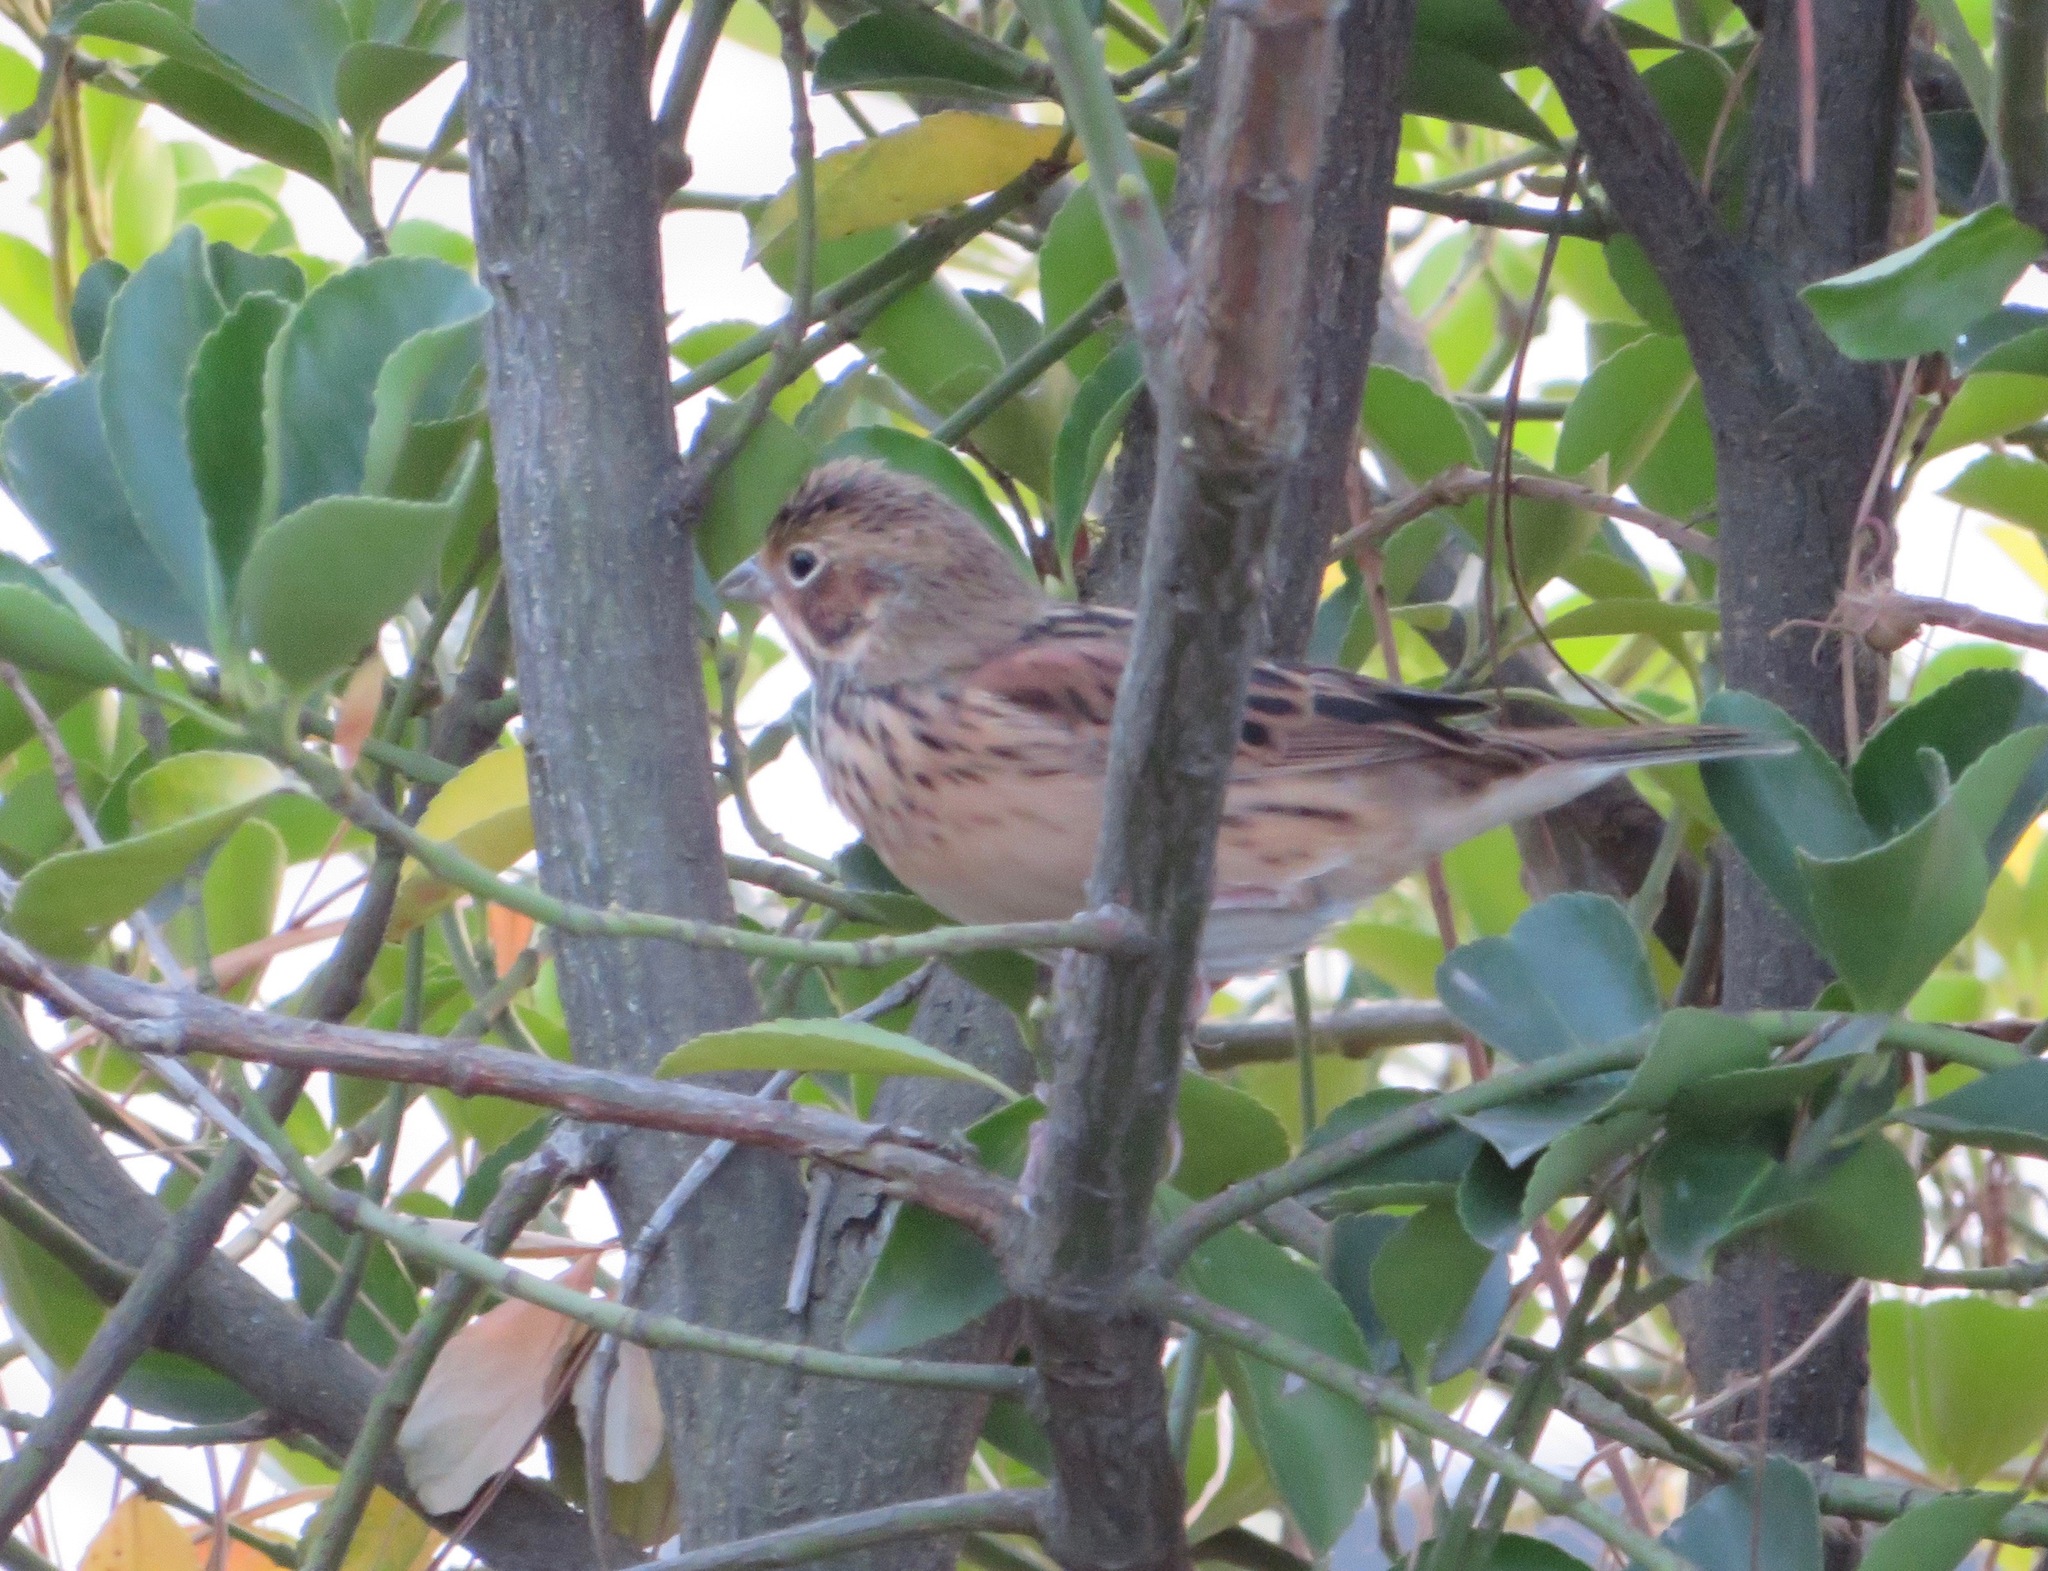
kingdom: Animalia
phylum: Chordata
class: Aves
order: Passeriformes
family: Emberizidae
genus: Emberiza
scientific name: Emberiza fucata
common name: Chestnut-eared bunting
